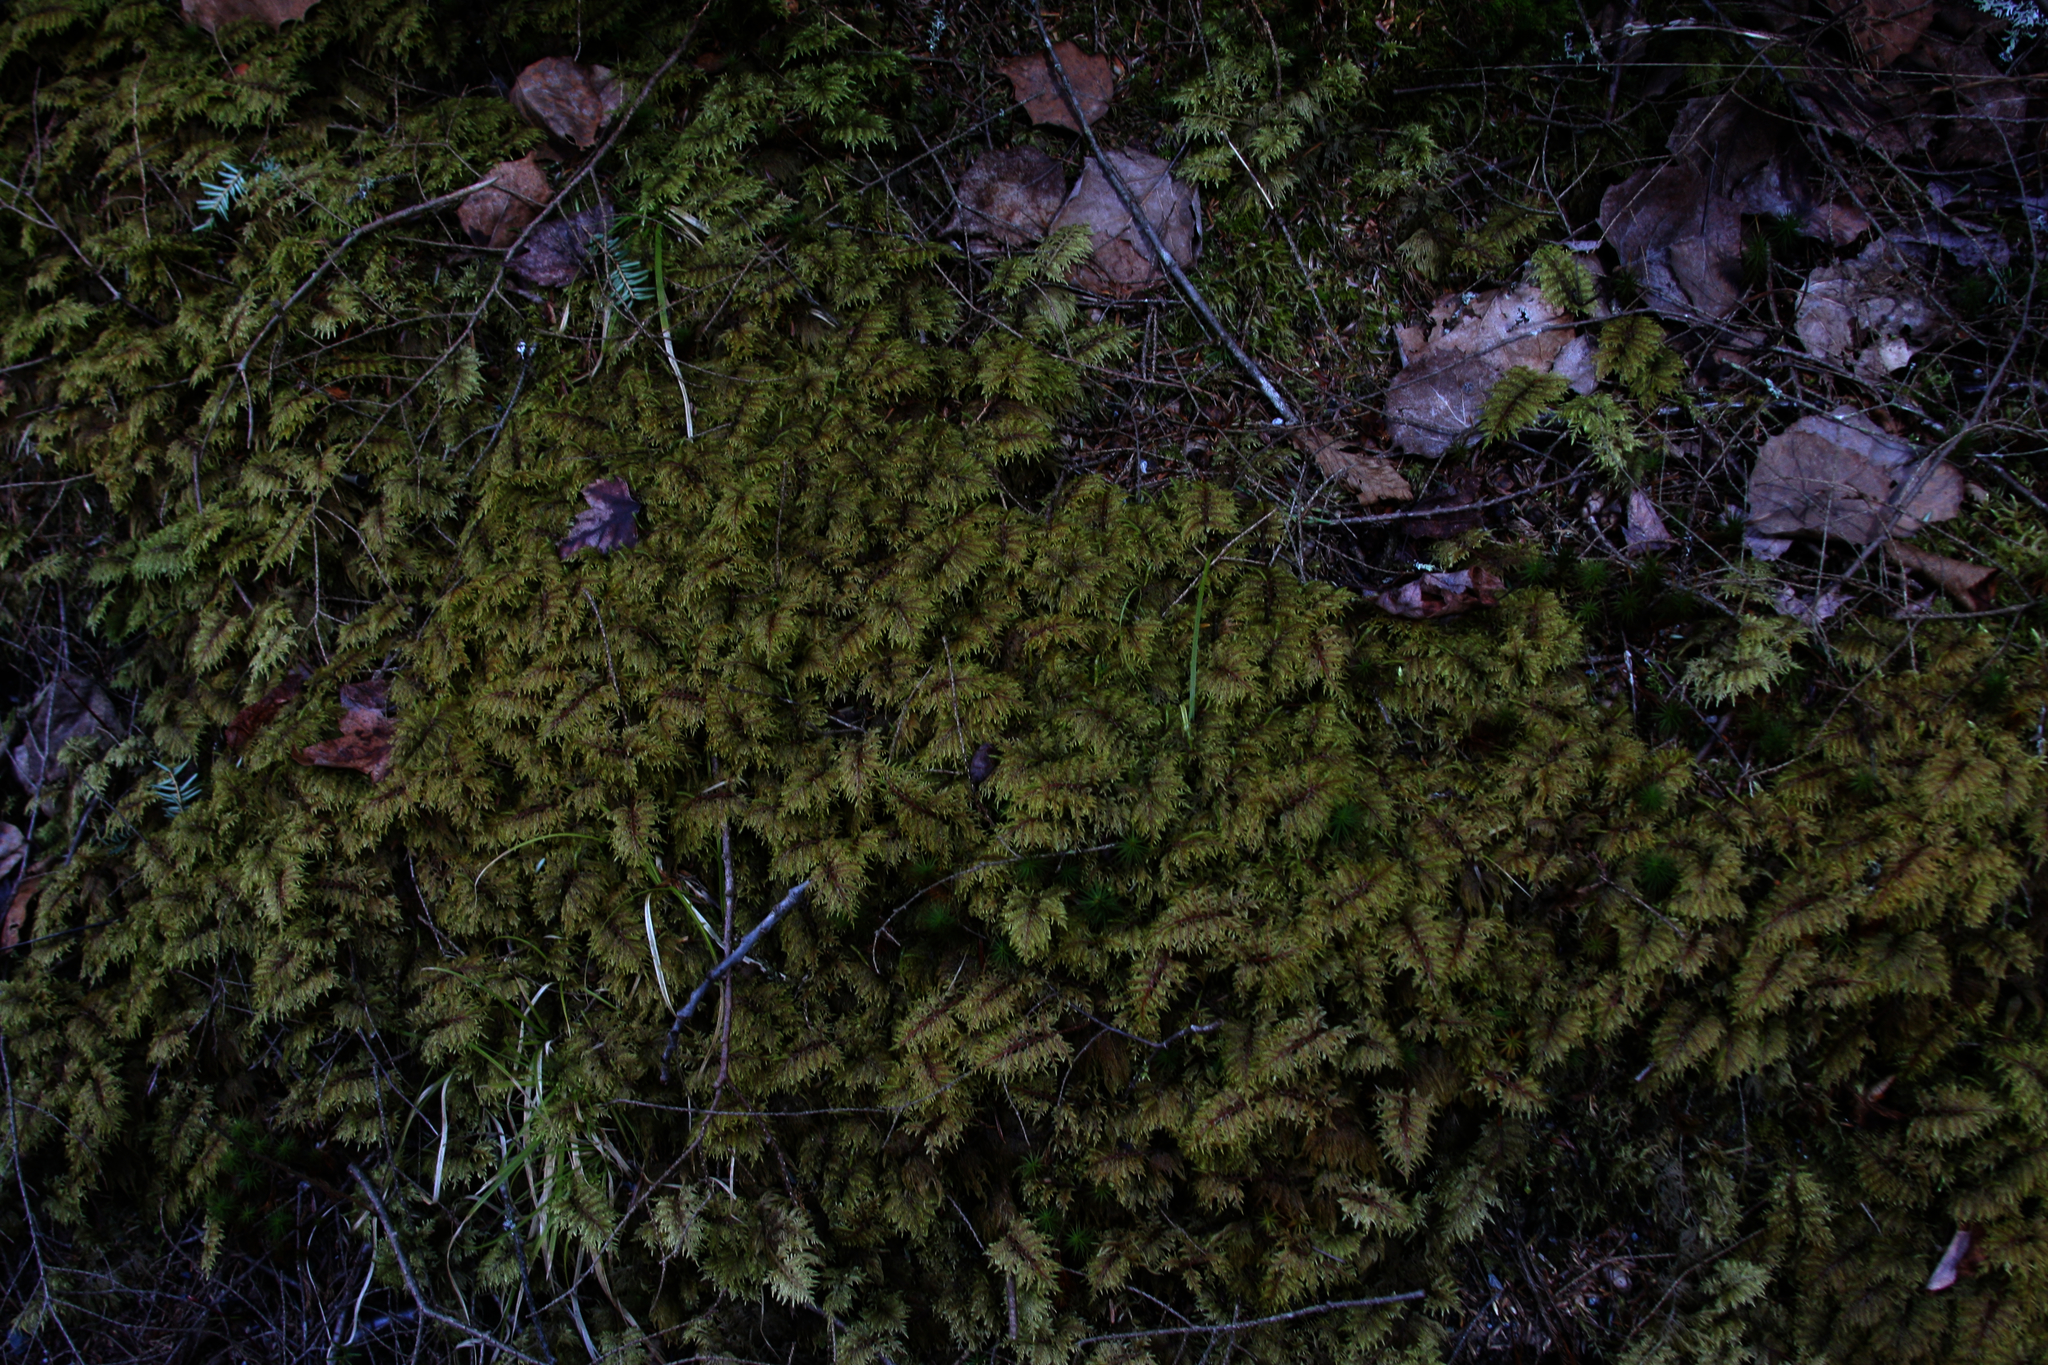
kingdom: Plantae
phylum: Bryophyta
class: Bryopsida
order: Hypnales
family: Hylocomiaceae
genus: Hylocomium
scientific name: Hylocomium splendens
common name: Stairstep moss
